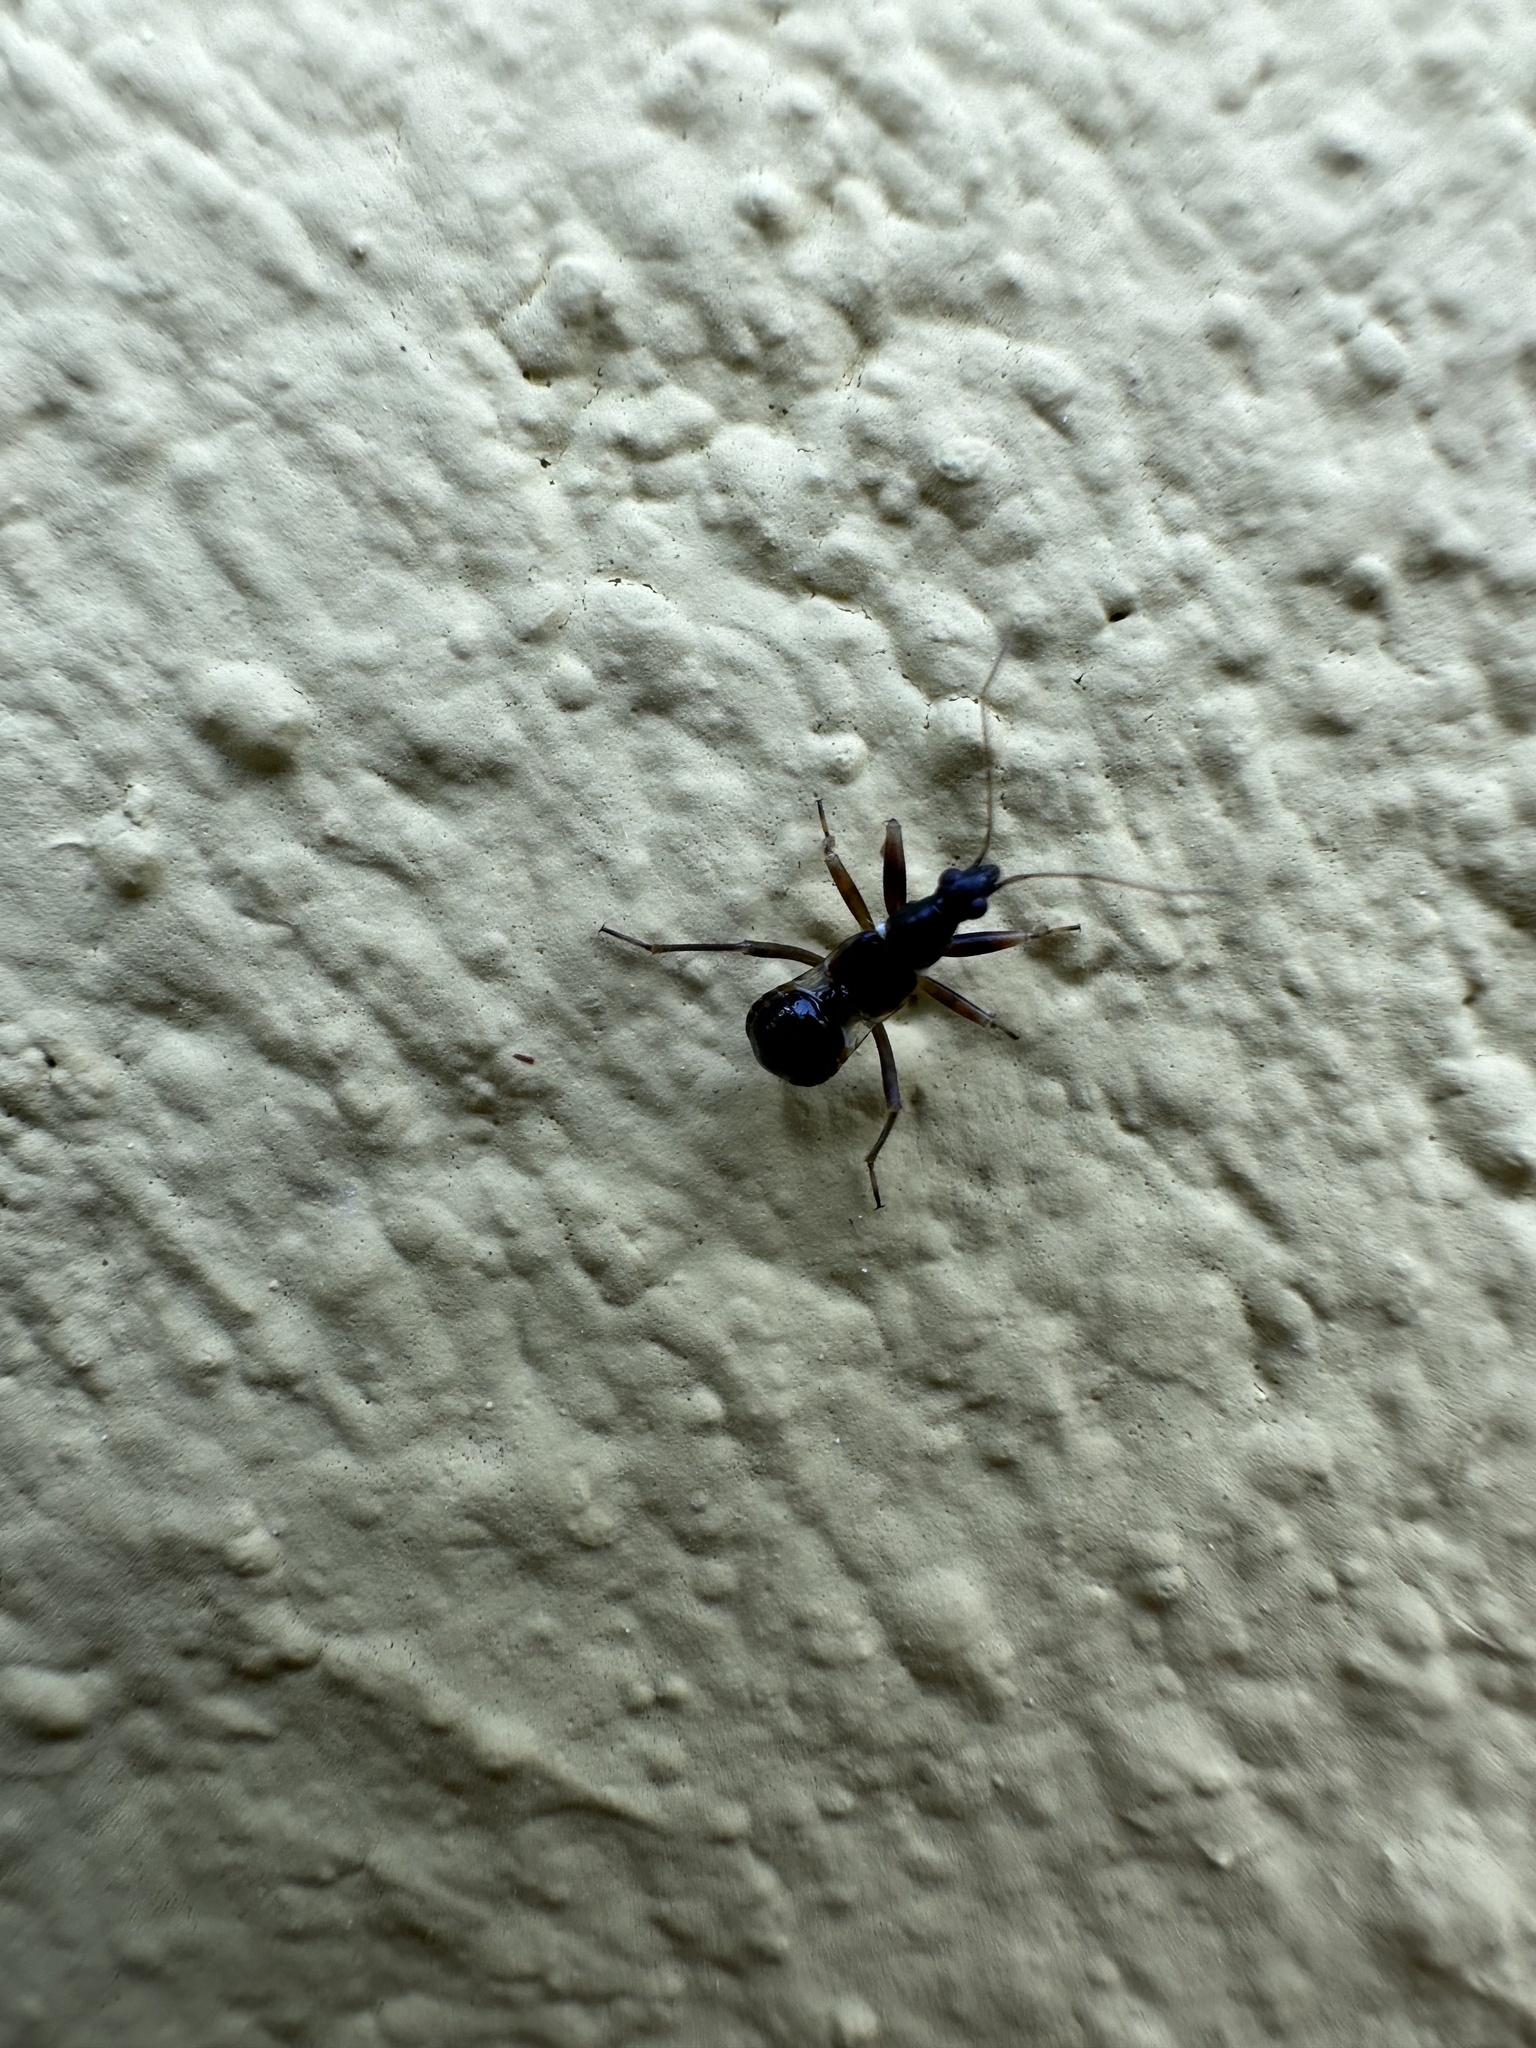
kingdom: Animalia
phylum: Arthropoda
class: Insecta
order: Hemiptera
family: Nabidae
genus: Himacerus
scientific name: Himacerus mirmicoides
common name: Ant damsel bug
